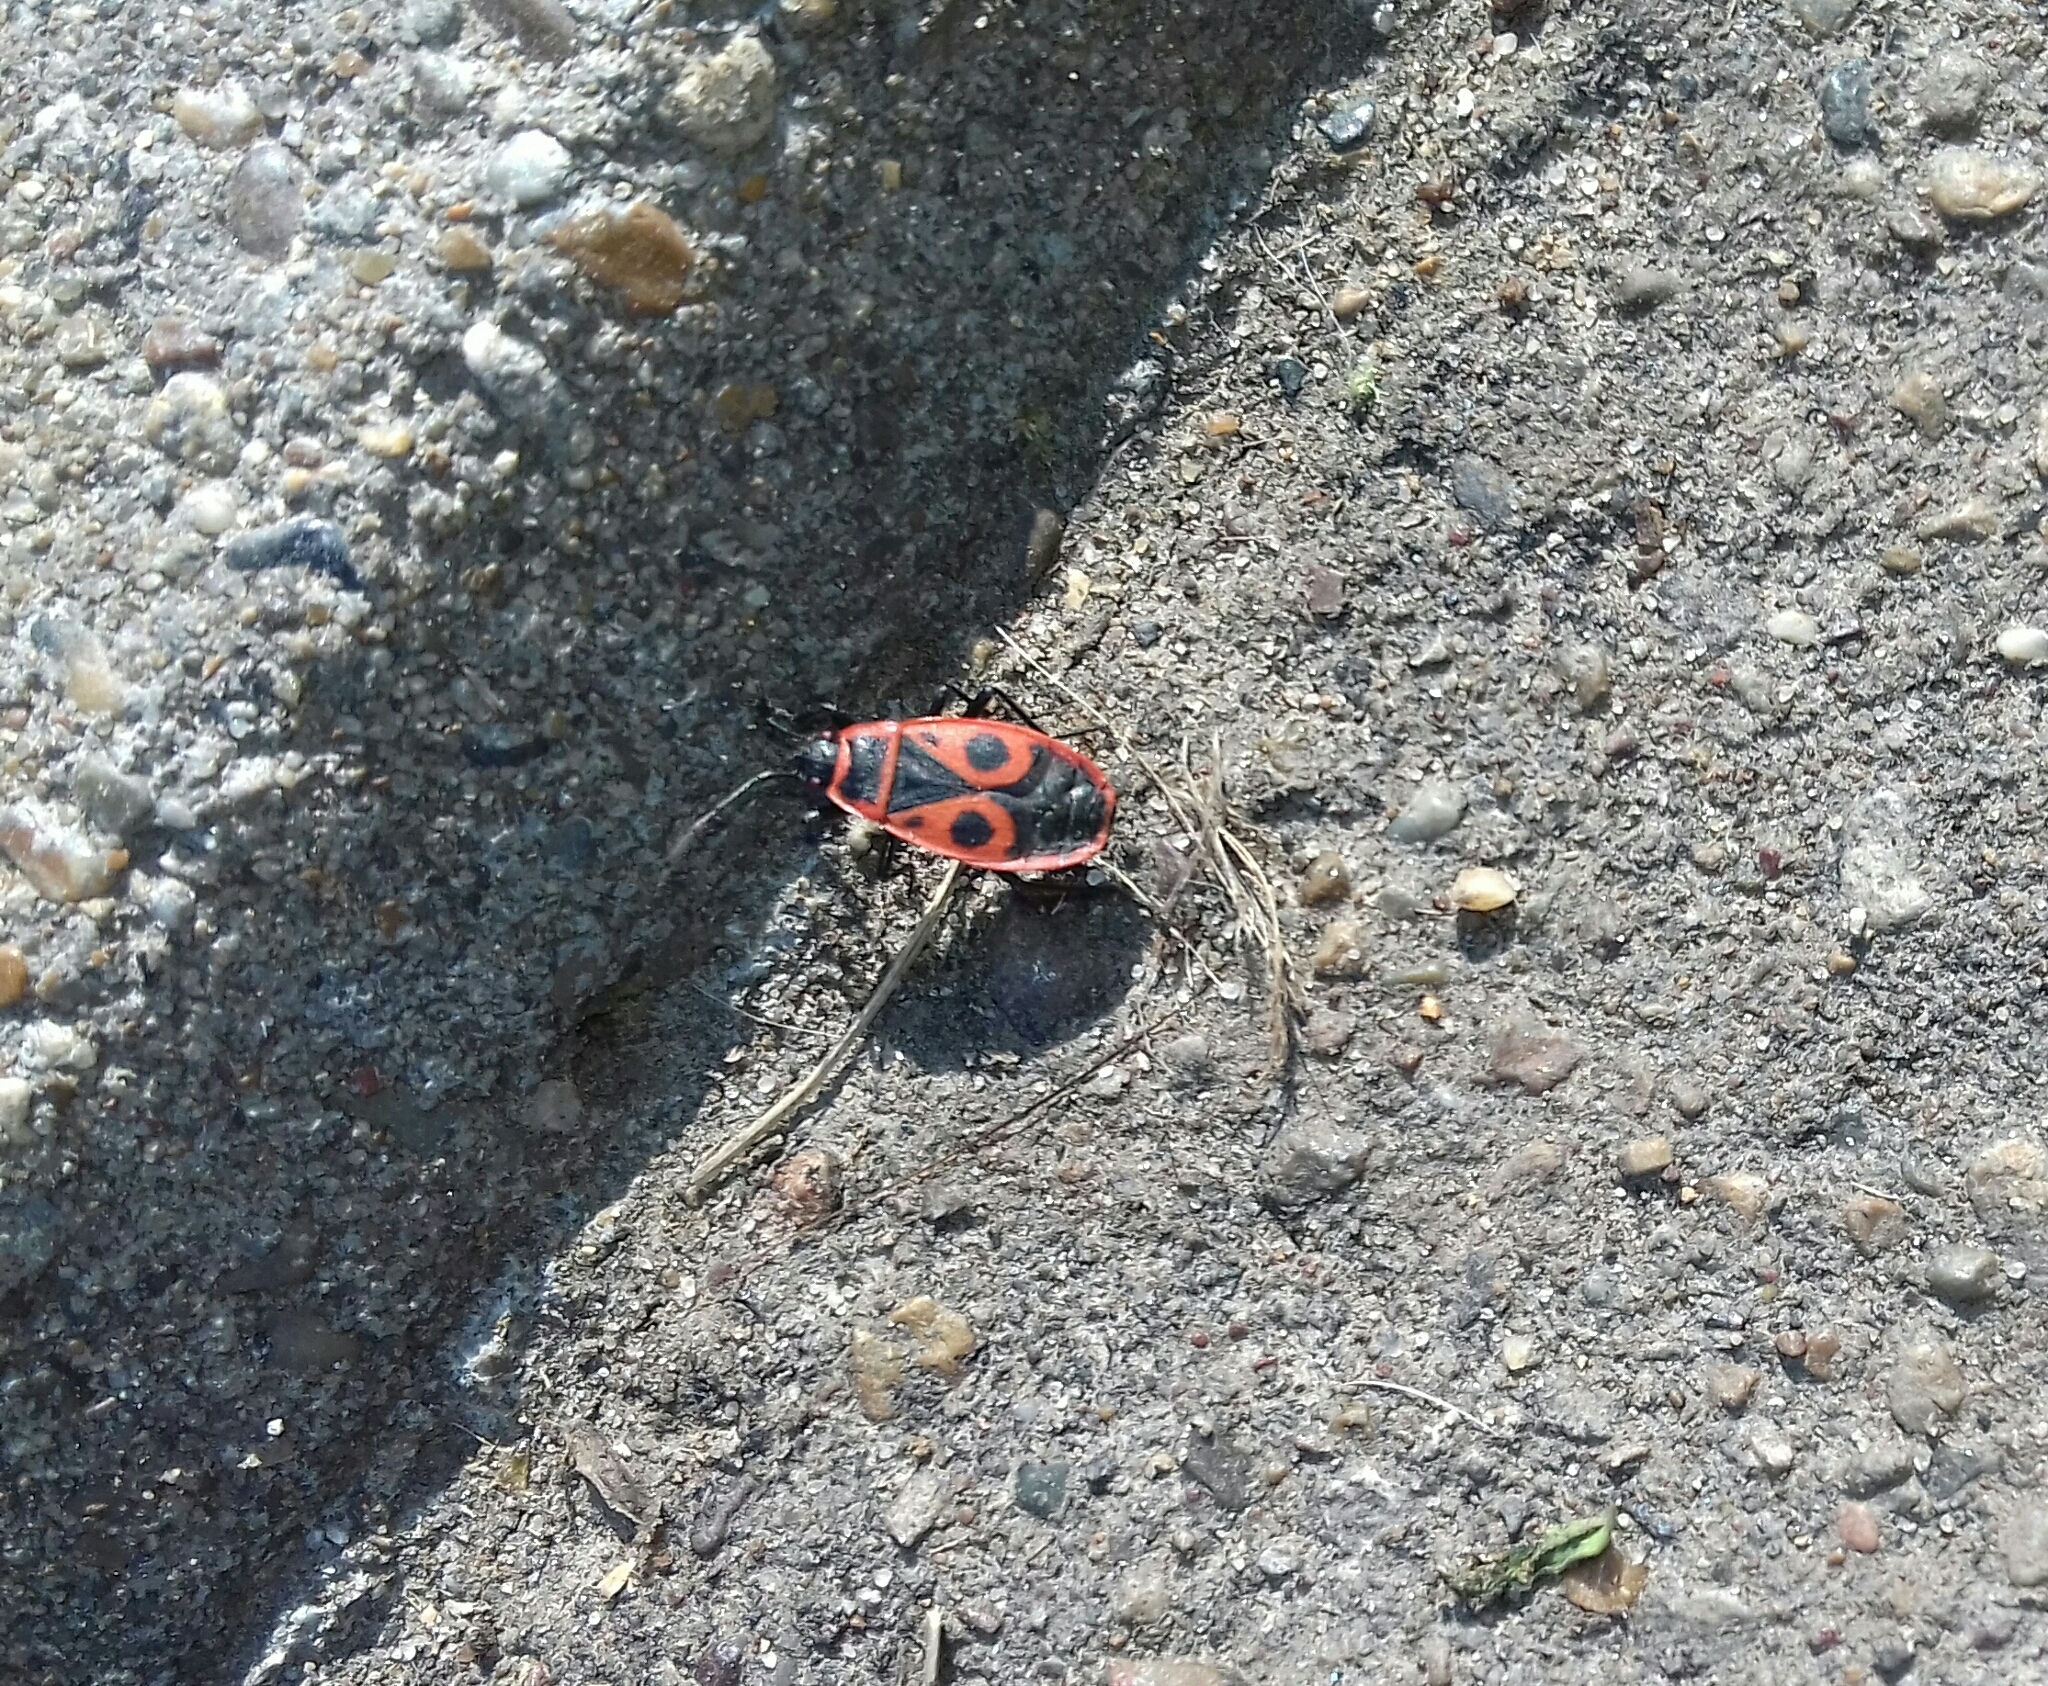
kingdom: Animalia
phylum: Arthropoda
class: Insecta
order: Hemiptera
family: Pyrrhocoridae
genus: Pyrrhocoris
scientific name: Pyrrhocoris apterus
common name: Firebug
